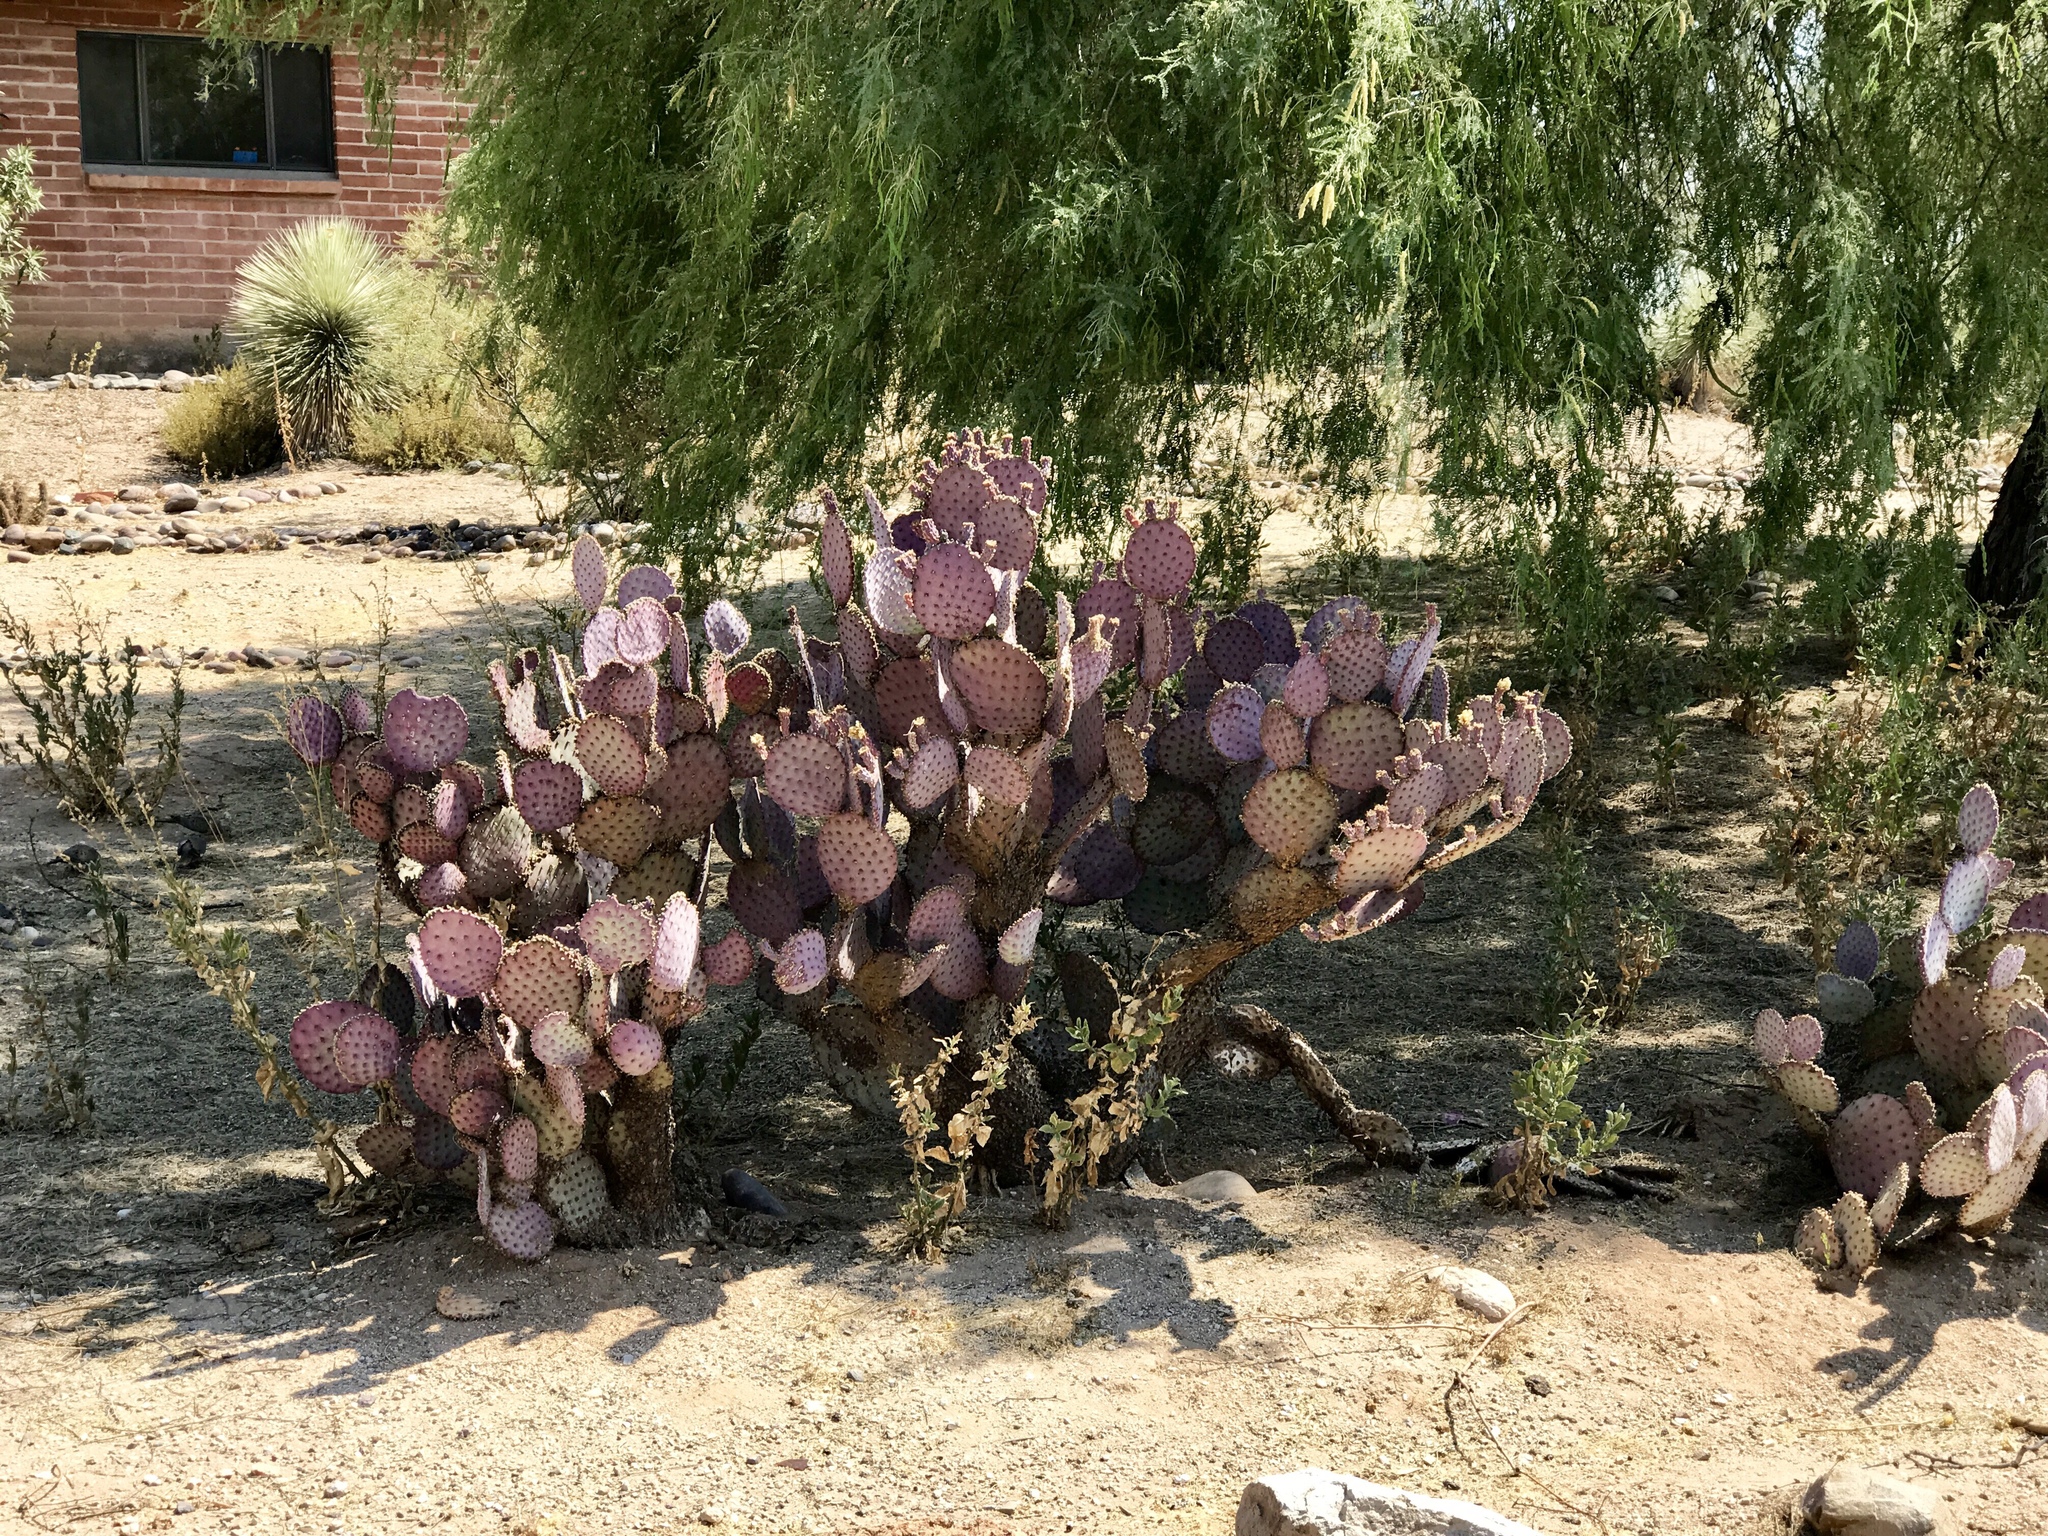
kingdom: Plantae
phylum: Tracheophyta
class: Magnoliopsida
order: Caryophyllales
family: Cactaceae
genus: Opuntia
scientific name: Opuntia gosseliniana
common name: Violet prickly-pear
